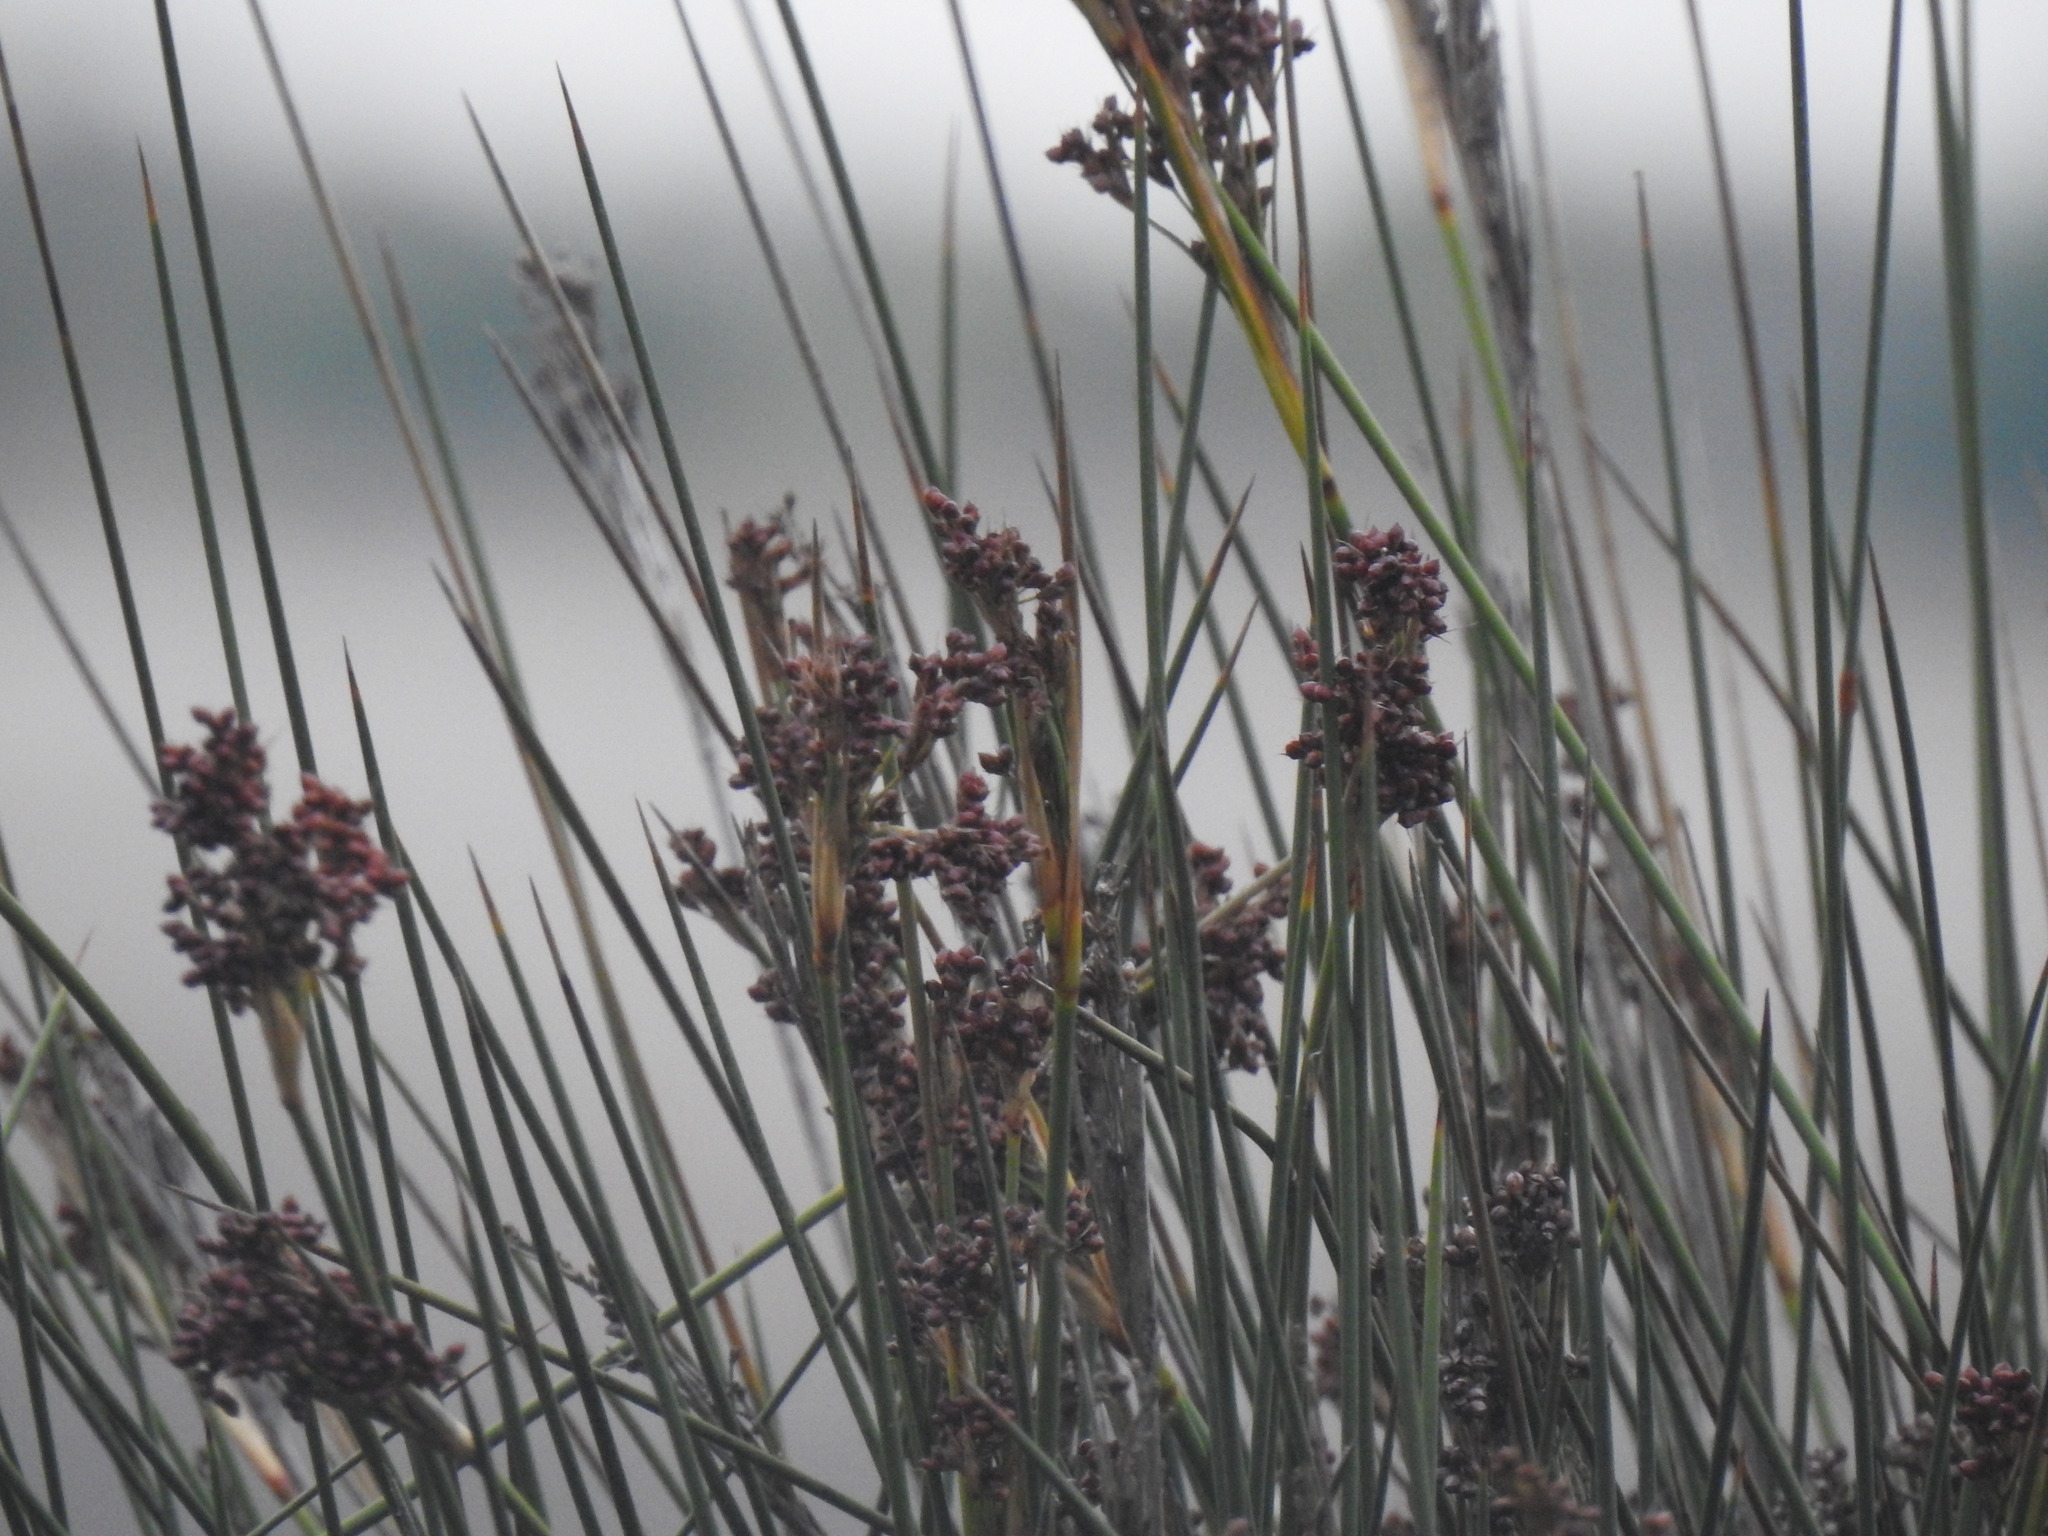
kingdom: Plantae
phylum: Tracheophyta
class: Liliopsida
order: Poales
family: Juncaceae
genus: Juncus
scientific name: Juncus acutus
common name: Sharp rush
